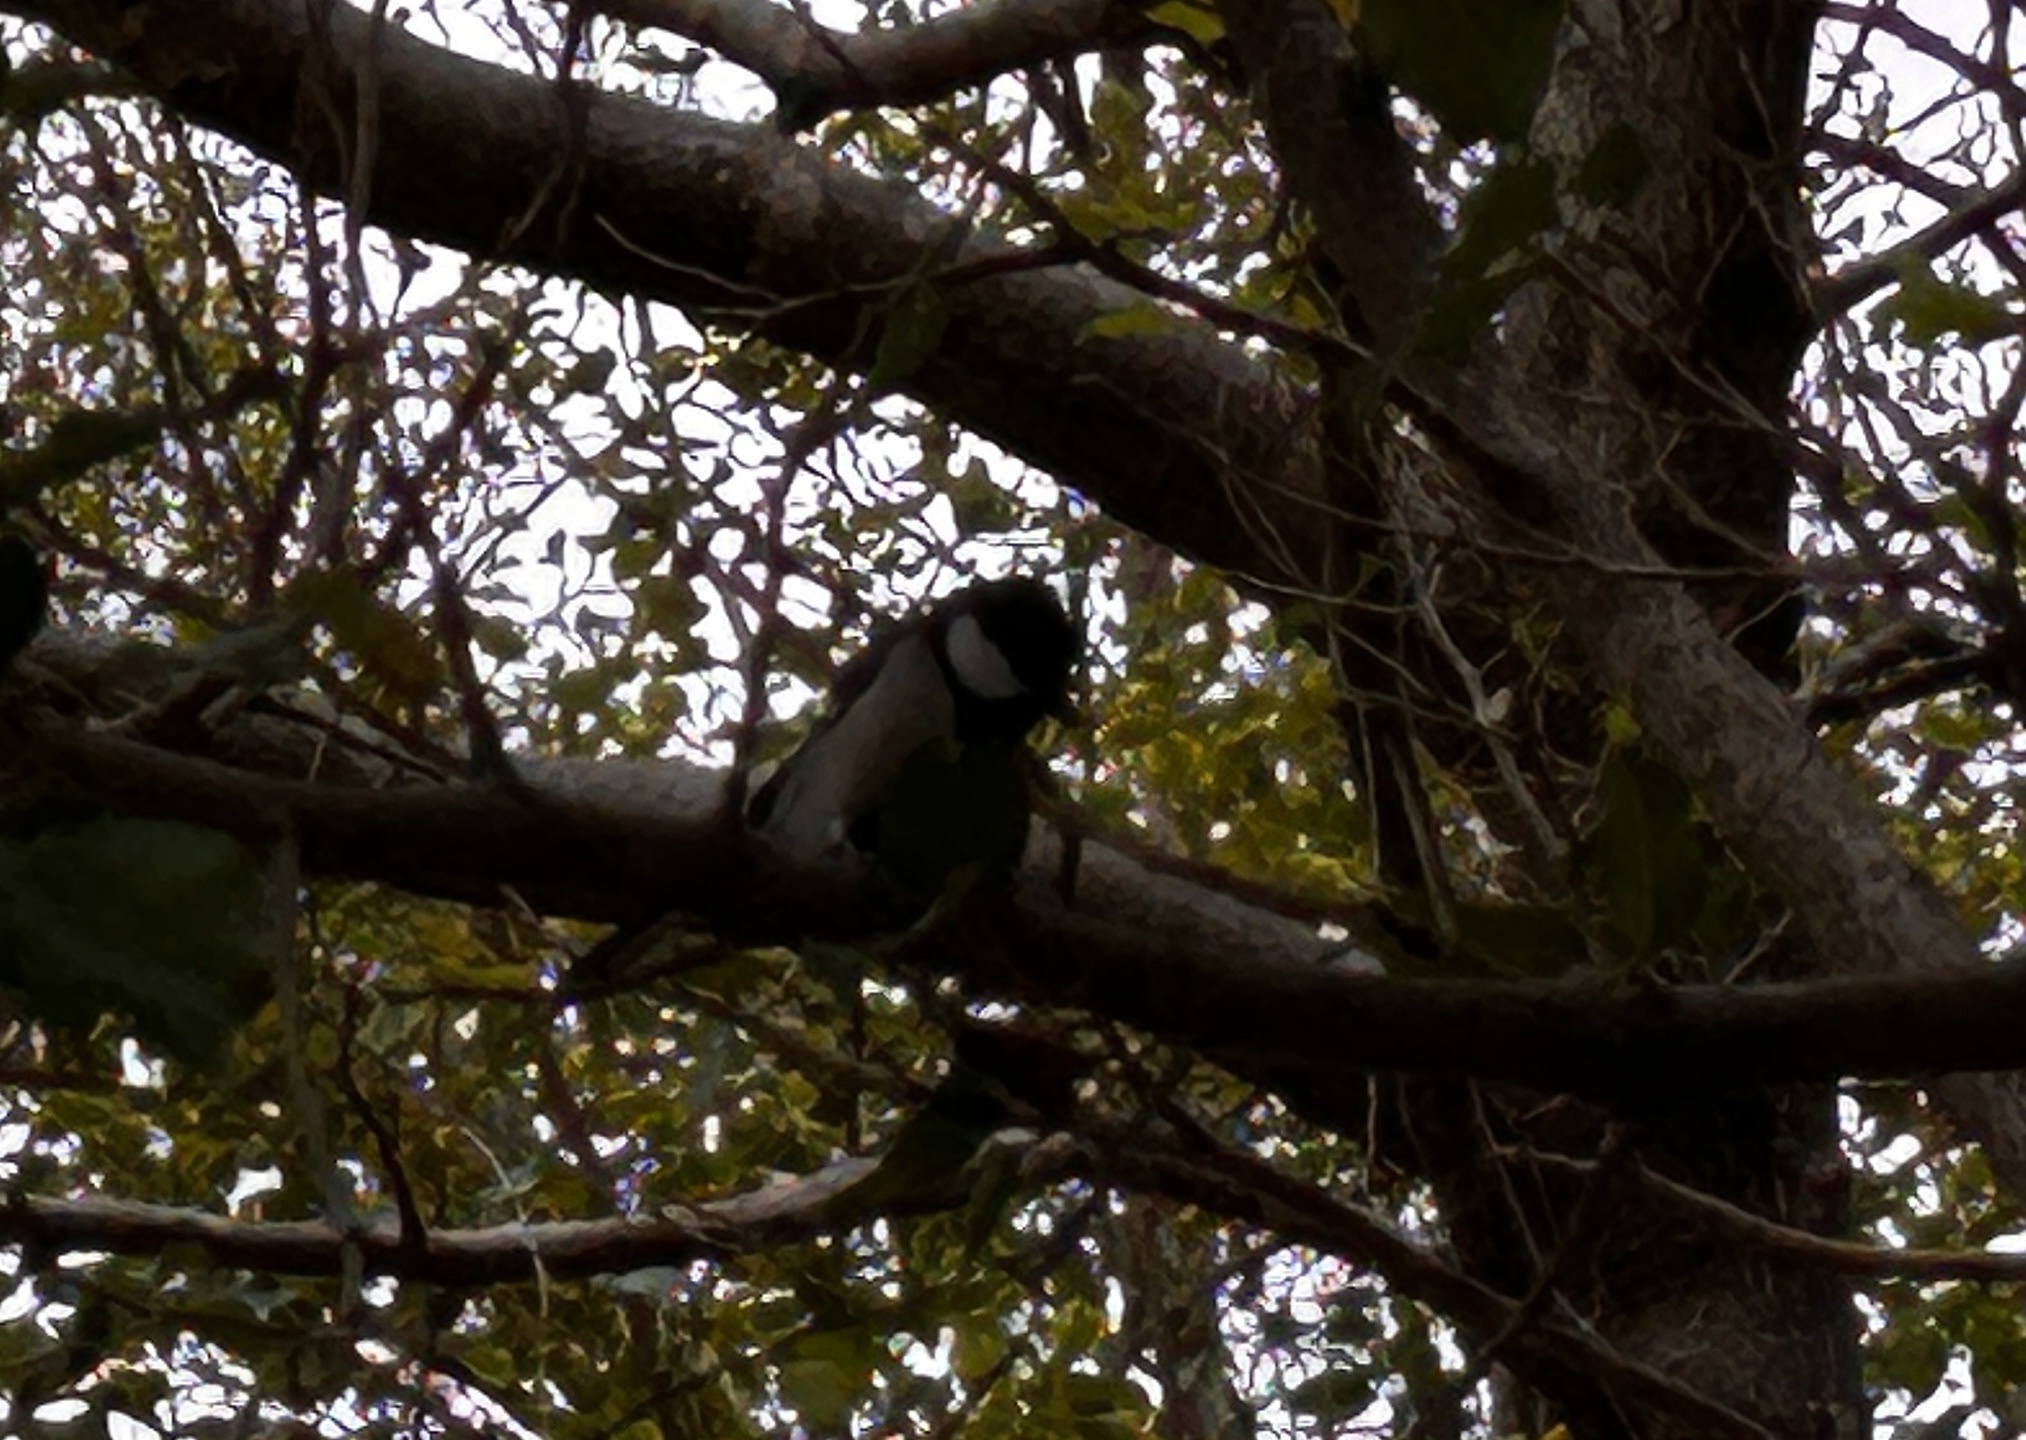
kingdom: Animalia
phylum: Chordata
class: Aves
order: Passeriformes
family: Paridae
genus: Parus
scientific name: Parus minor
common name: Japanese tit
